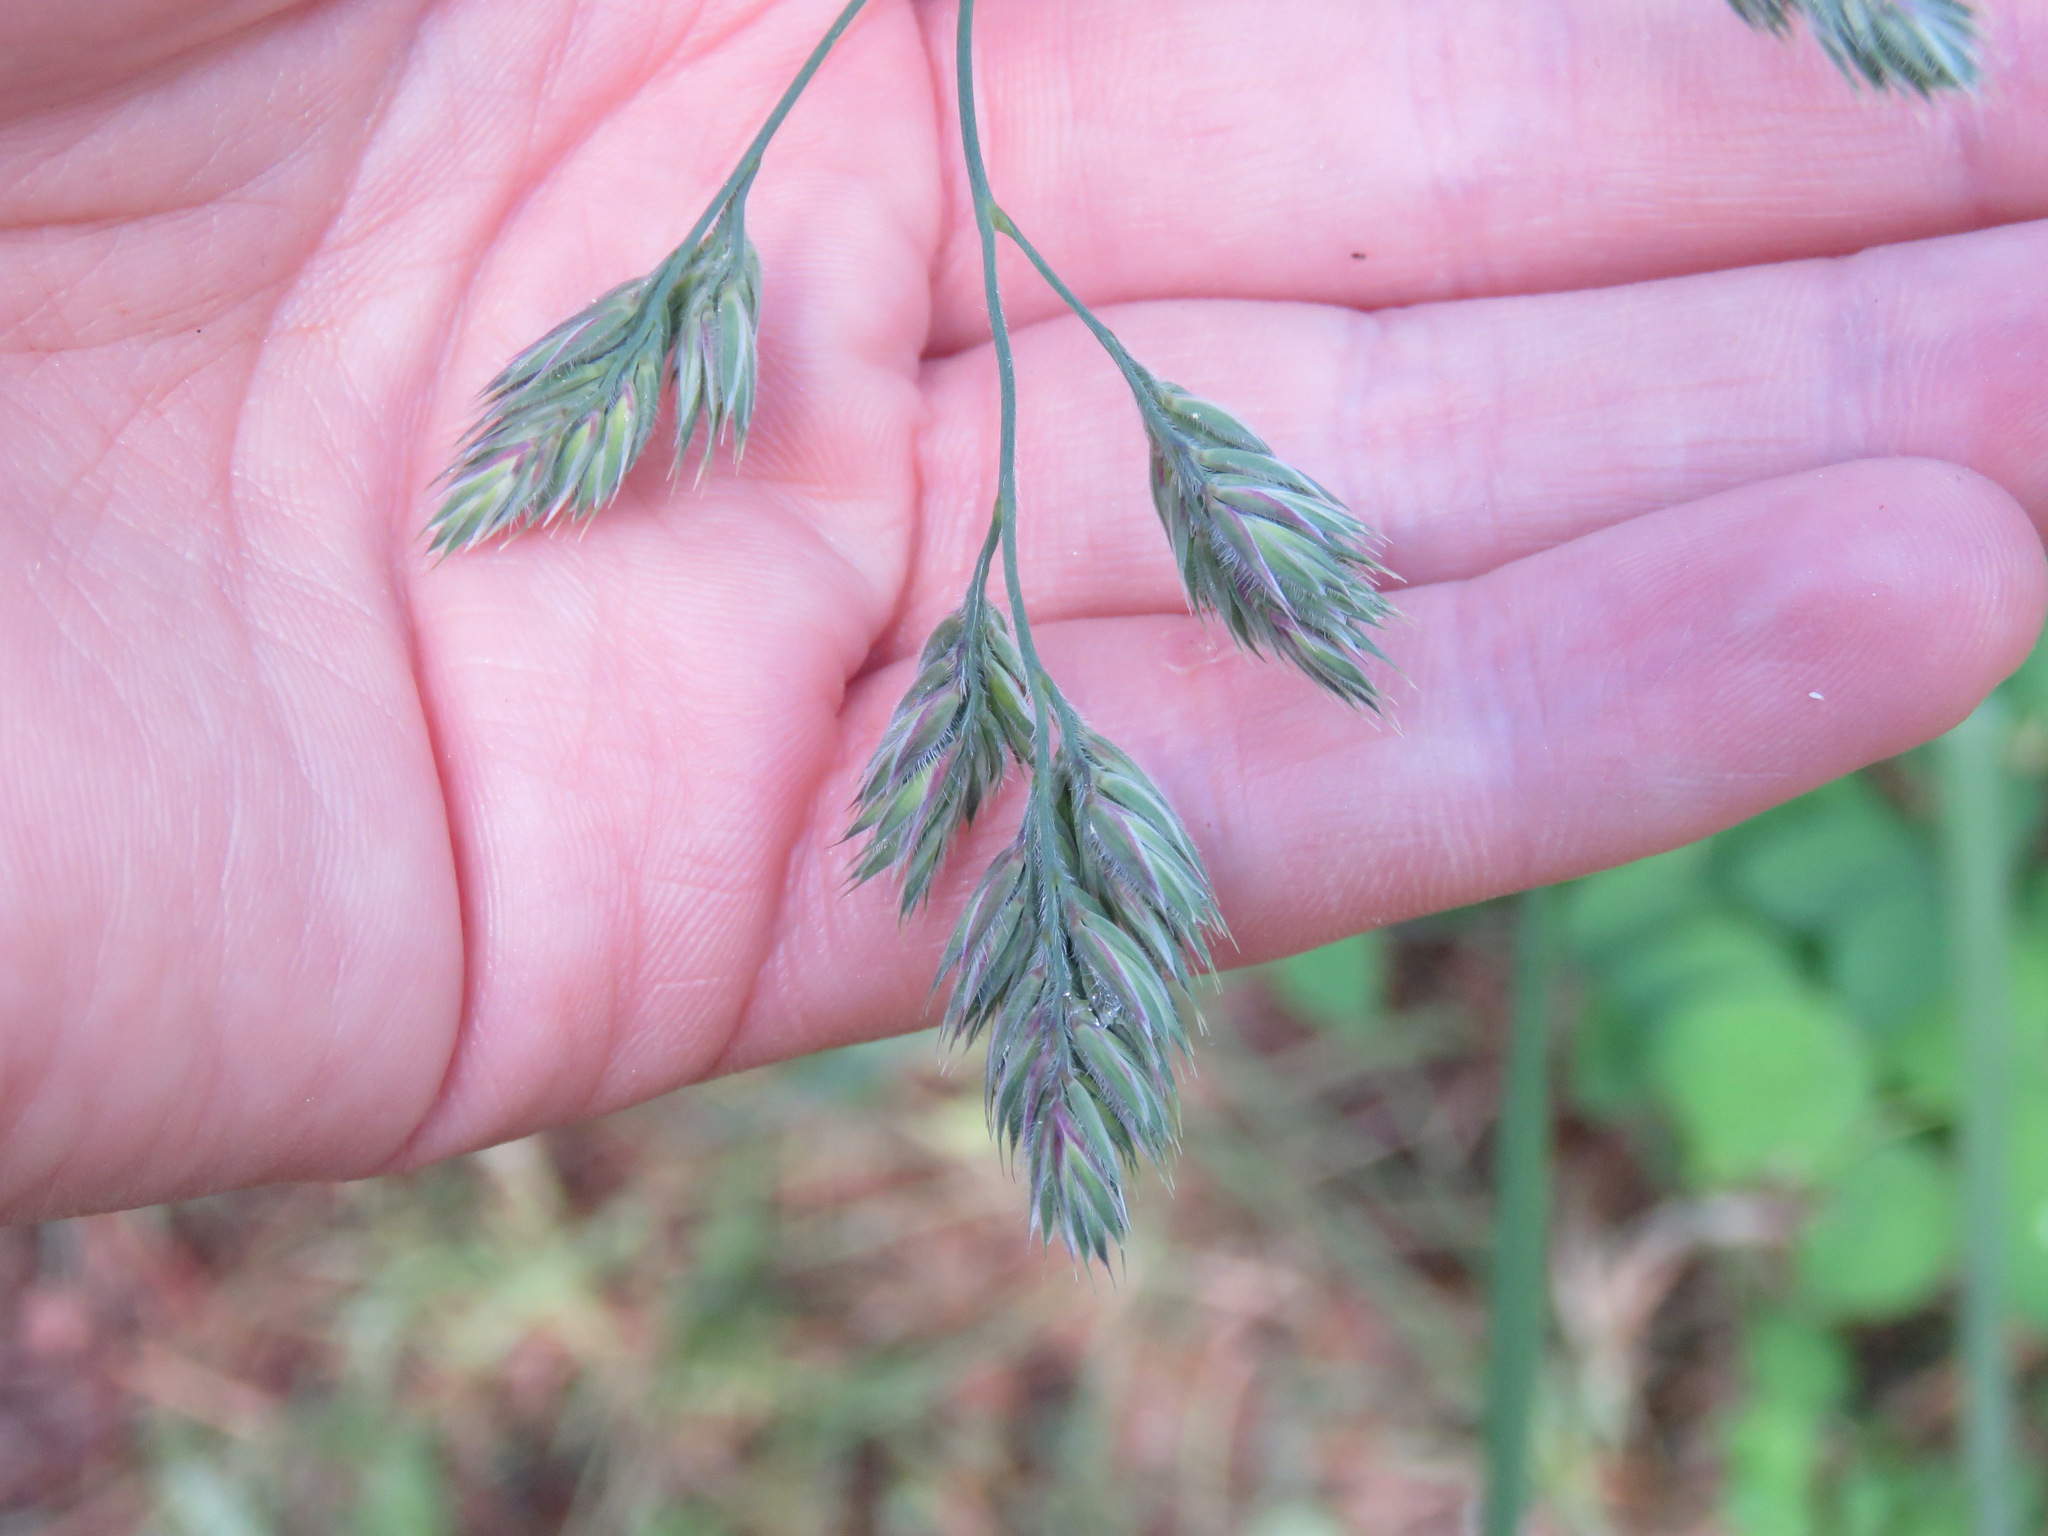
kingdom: Plantae
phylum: Tracheophyta
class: Liliopsida
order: Poales
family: Poaceae
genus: Dactylis
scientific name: Dactylis glomerata
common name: Orchardgrass
